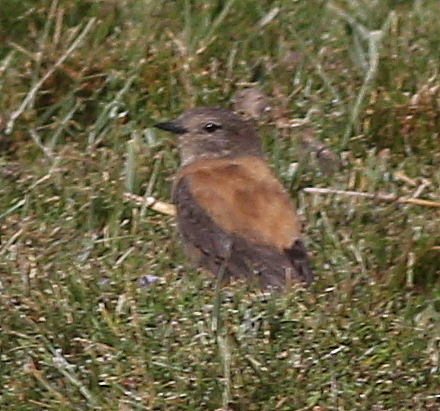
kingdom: Animalia
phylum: Chordata
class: Aves
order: Passeriformes
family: Tyrannidae
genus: Lessonia
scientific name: Lessonia oreas
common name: Andean negrito
